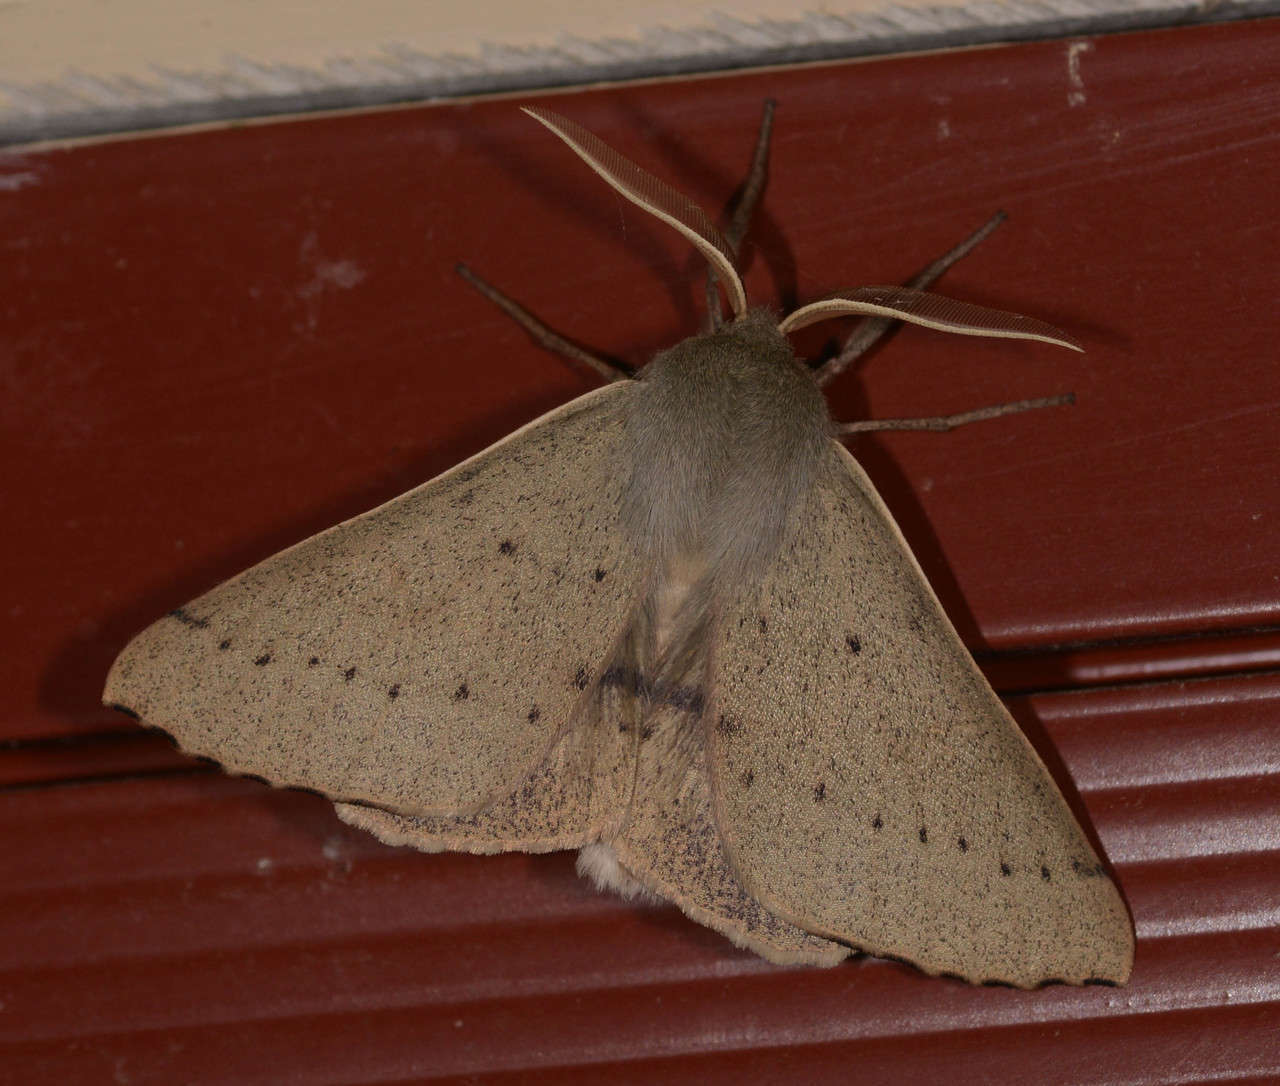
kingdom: Animalia
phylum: Arthropoda
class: Insecta
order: Lepidoptera
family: Geometridae
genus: Arhodia
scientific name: Arhodia lasiocamparia
